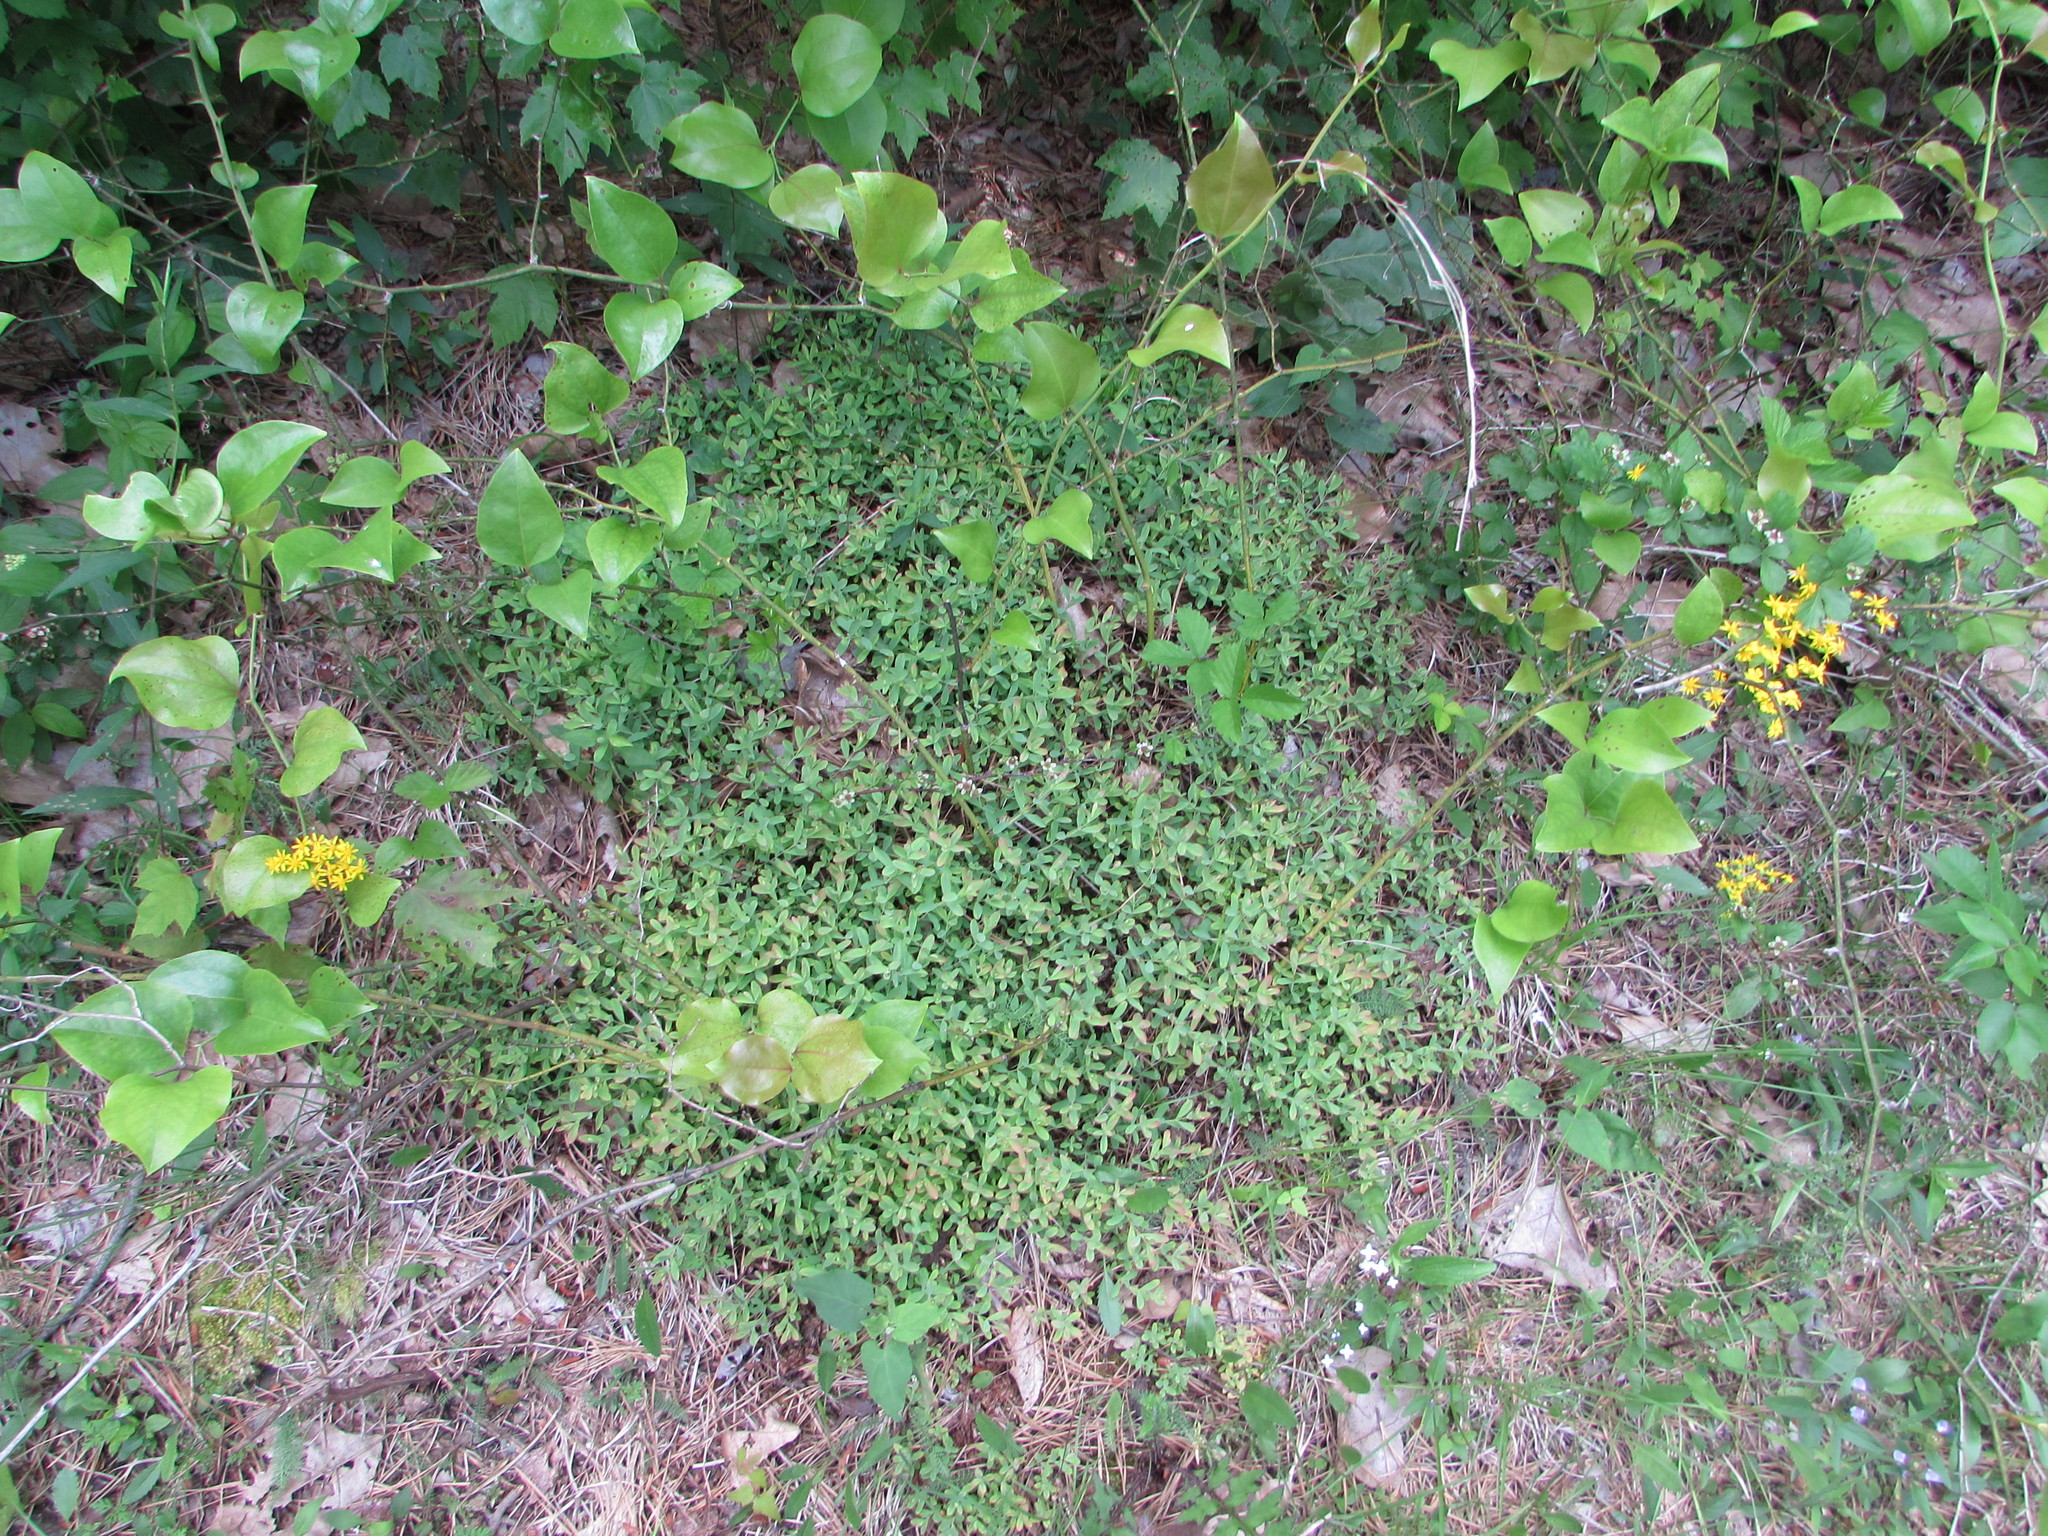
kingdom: Plantae
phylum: Tracheophyta
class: Magnoliopsida
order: Malpighiales
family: Hypericaceae
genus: Hypericum
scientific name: Hypericum hypericoides
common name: St. andrew's cross
